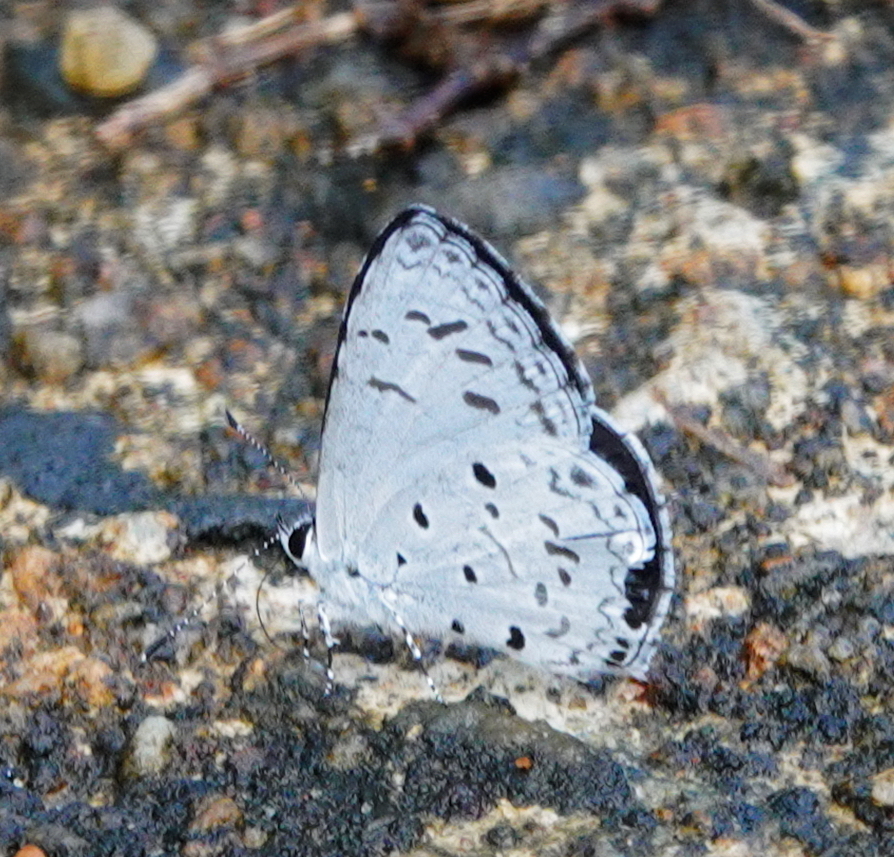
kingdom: Animalia
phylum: Arthropoda
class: Insecta
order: Lepidoptera
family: Lycaenidae
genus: Acytolepis
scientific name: Acytolepis puspa
